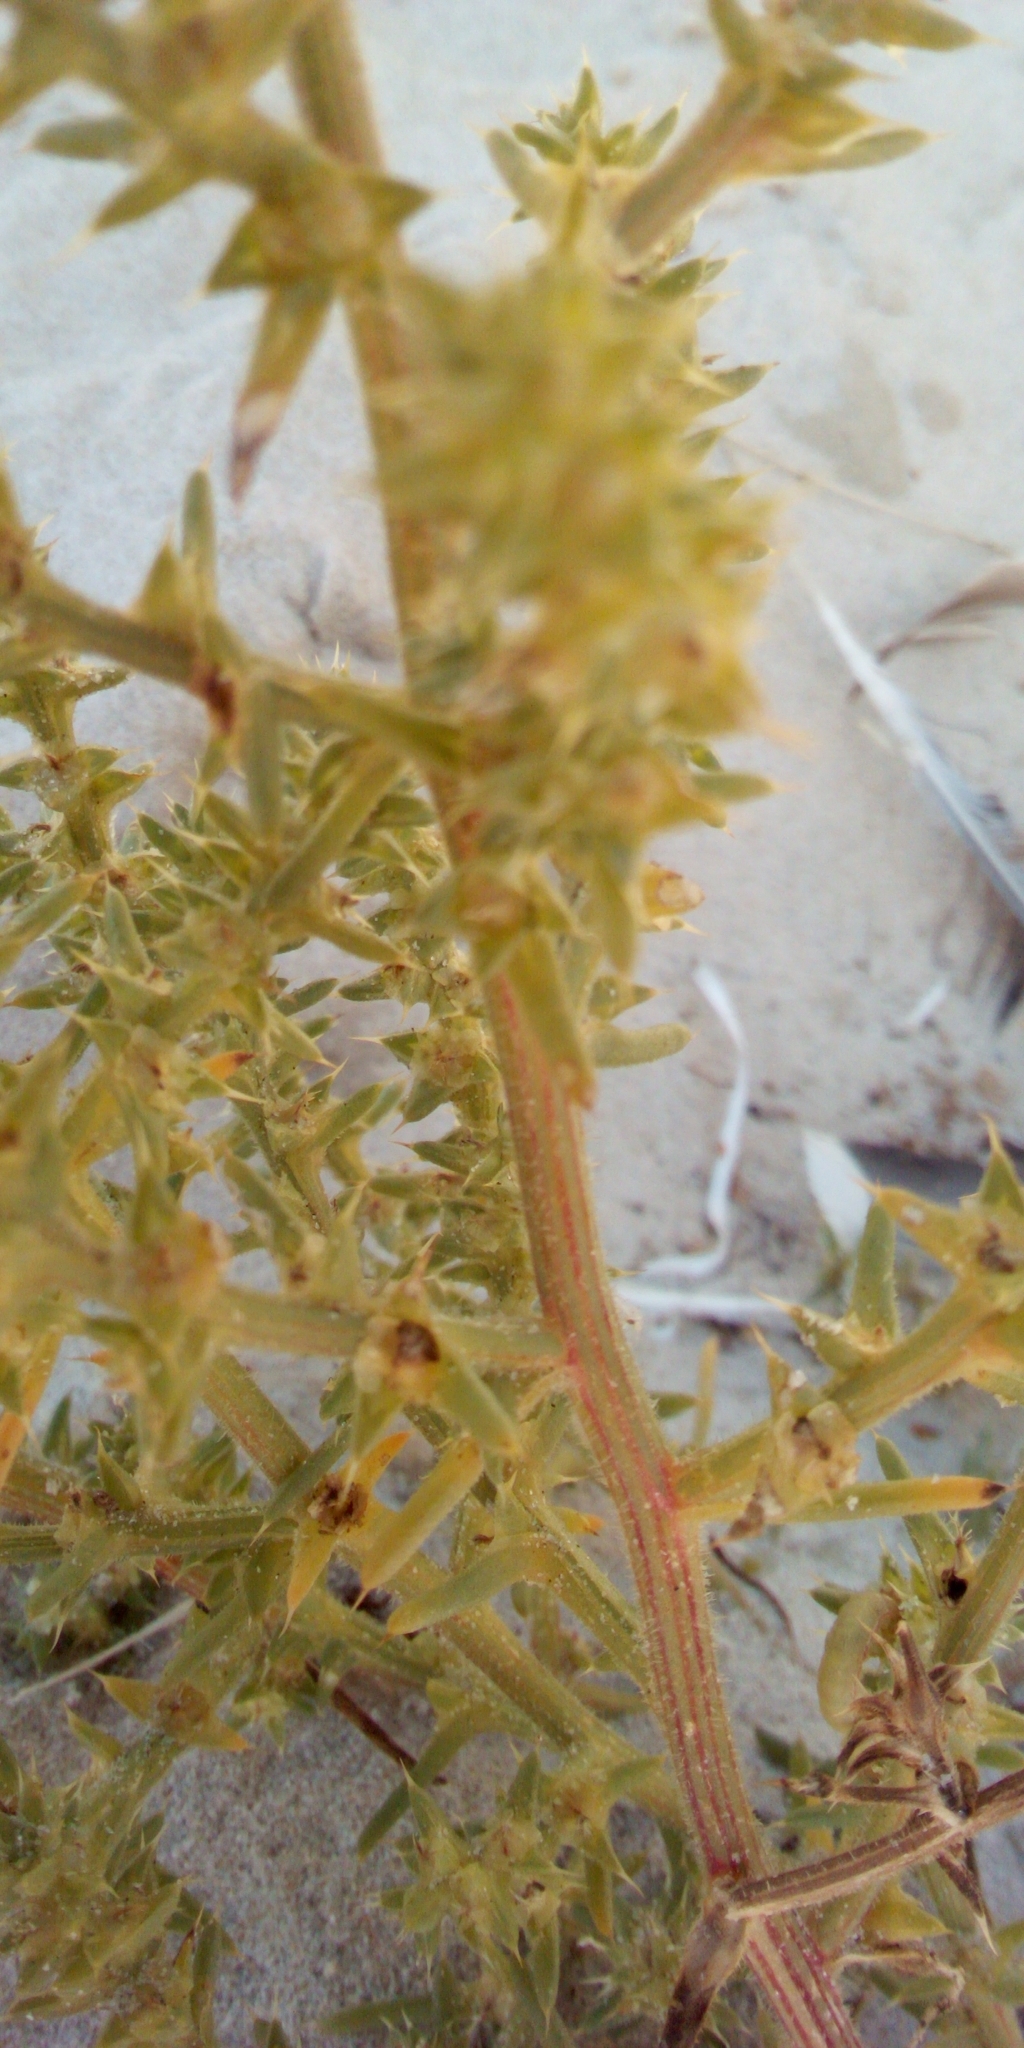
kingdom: Plantae
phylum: Tracheophyta
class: Magnoliopsida
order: Caryophyllales
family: Amaranthaceae
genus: Salsola
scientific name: Salsola kali
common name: Saltwort
